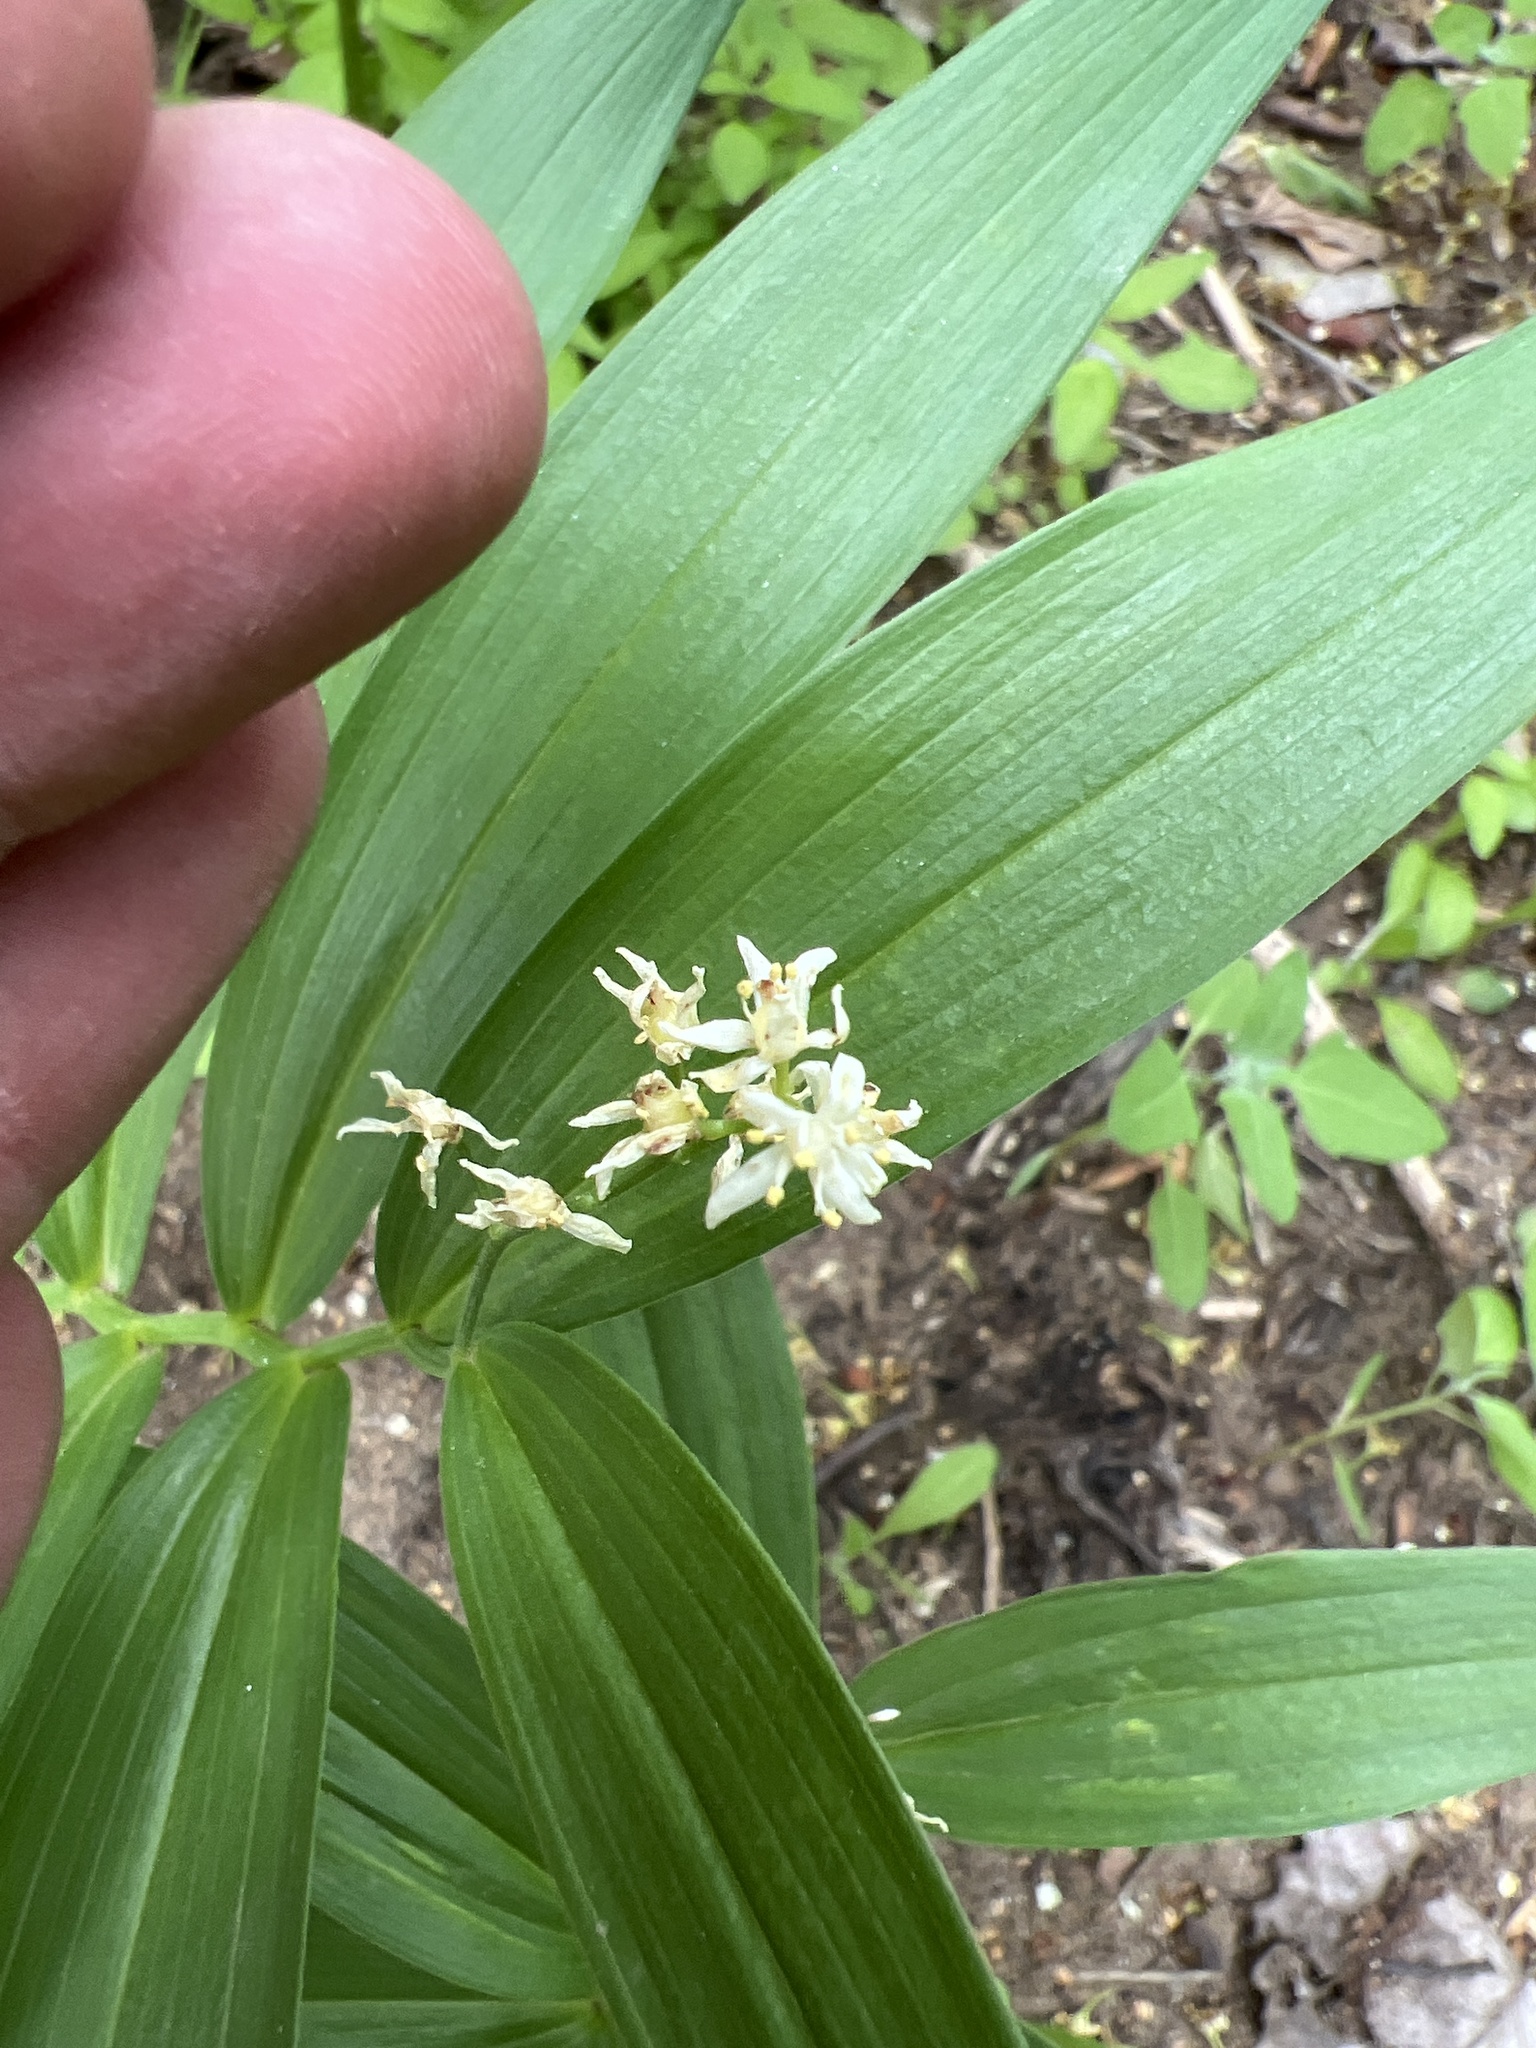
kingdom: Plantae
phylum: Tracheophyta
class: Liliopsida
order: Asparagales
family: Asparagaceae
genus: Maianthemum
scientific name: Maianthemum stellatum
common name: Little false solomon's seal
